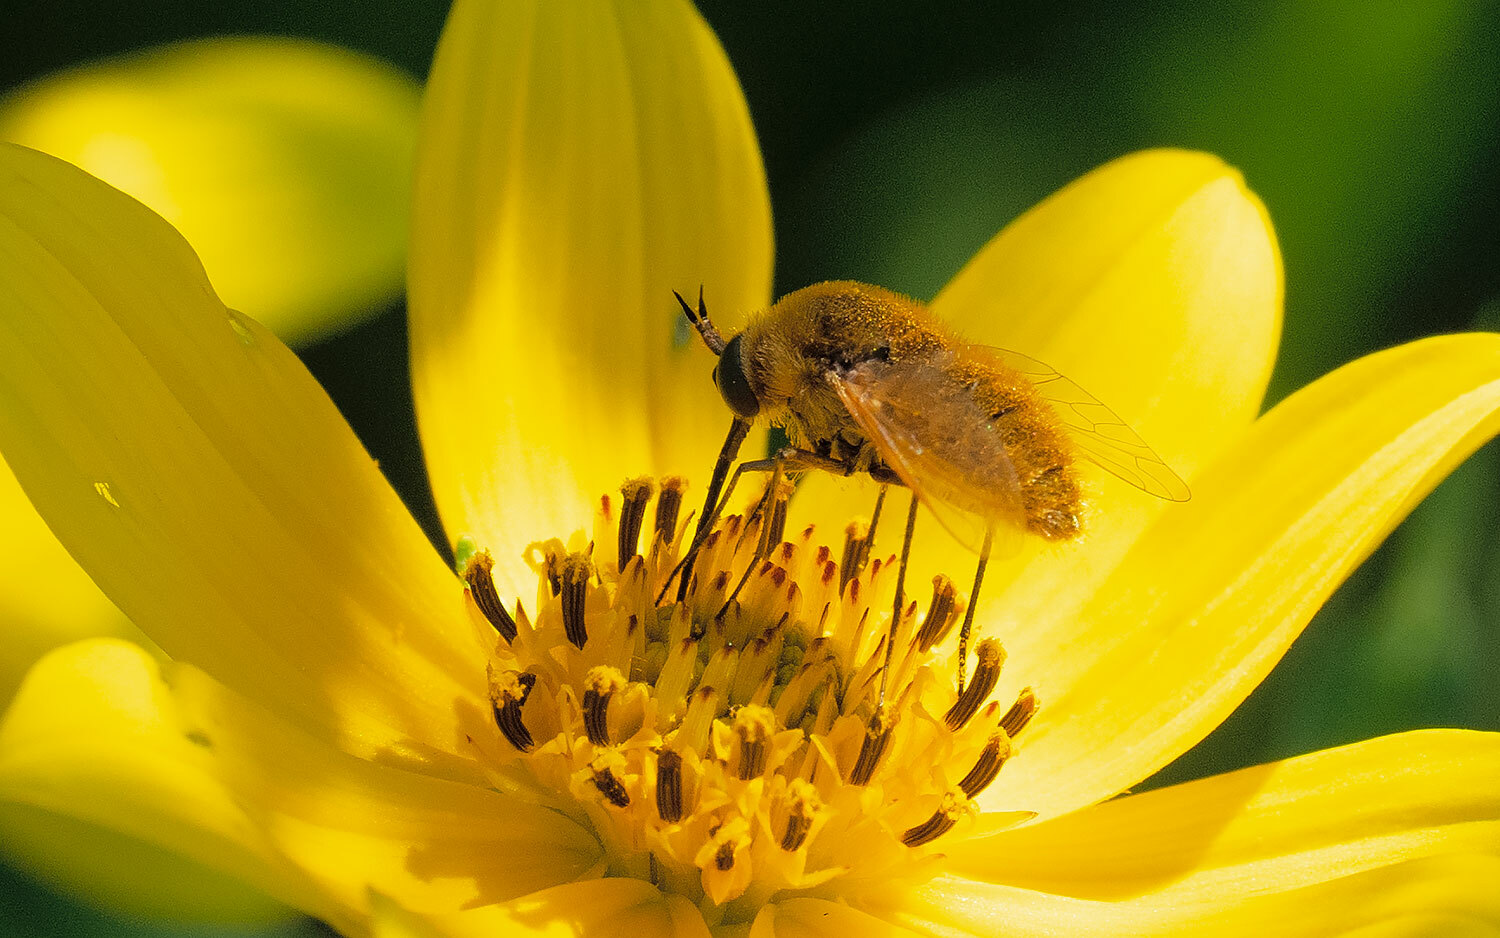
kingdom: Animalia
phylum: Arthropoda
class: Insecta
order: Diptera
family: Bombyliidae
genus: Sparnopolius
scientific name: Sparnopolius confusus
